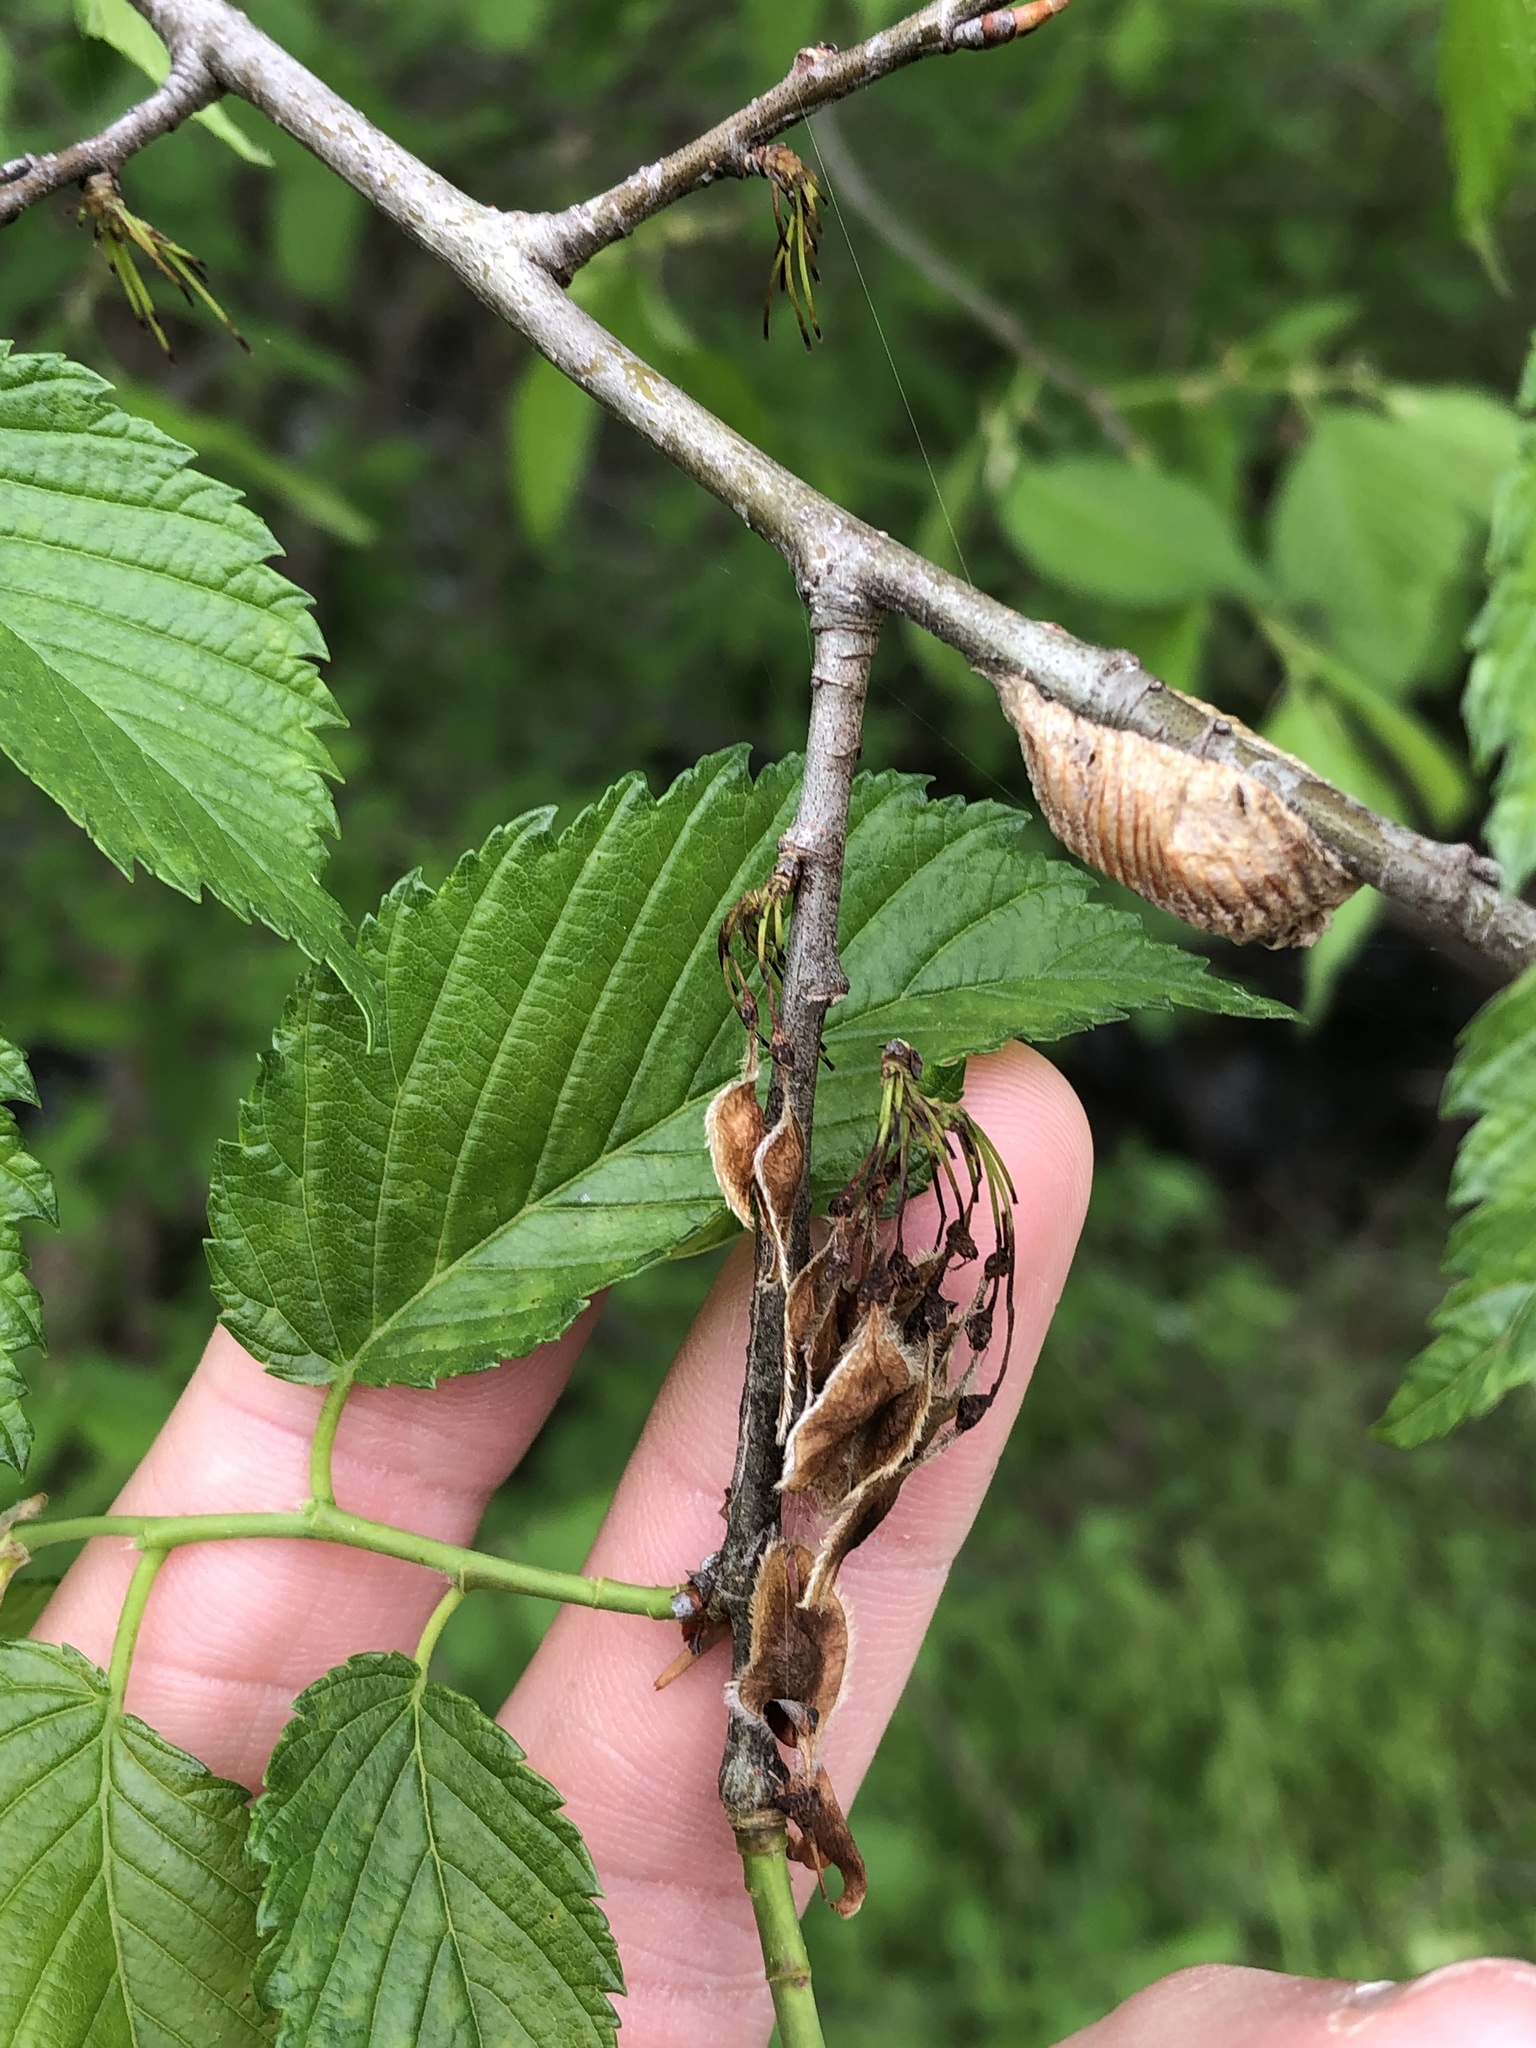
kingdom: Plantae
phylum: Tracheophyta
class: Magnoliopsida
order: Rosales
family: Ulmaceae
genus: Ulmus
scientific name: Ulmus americana
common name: American elm
